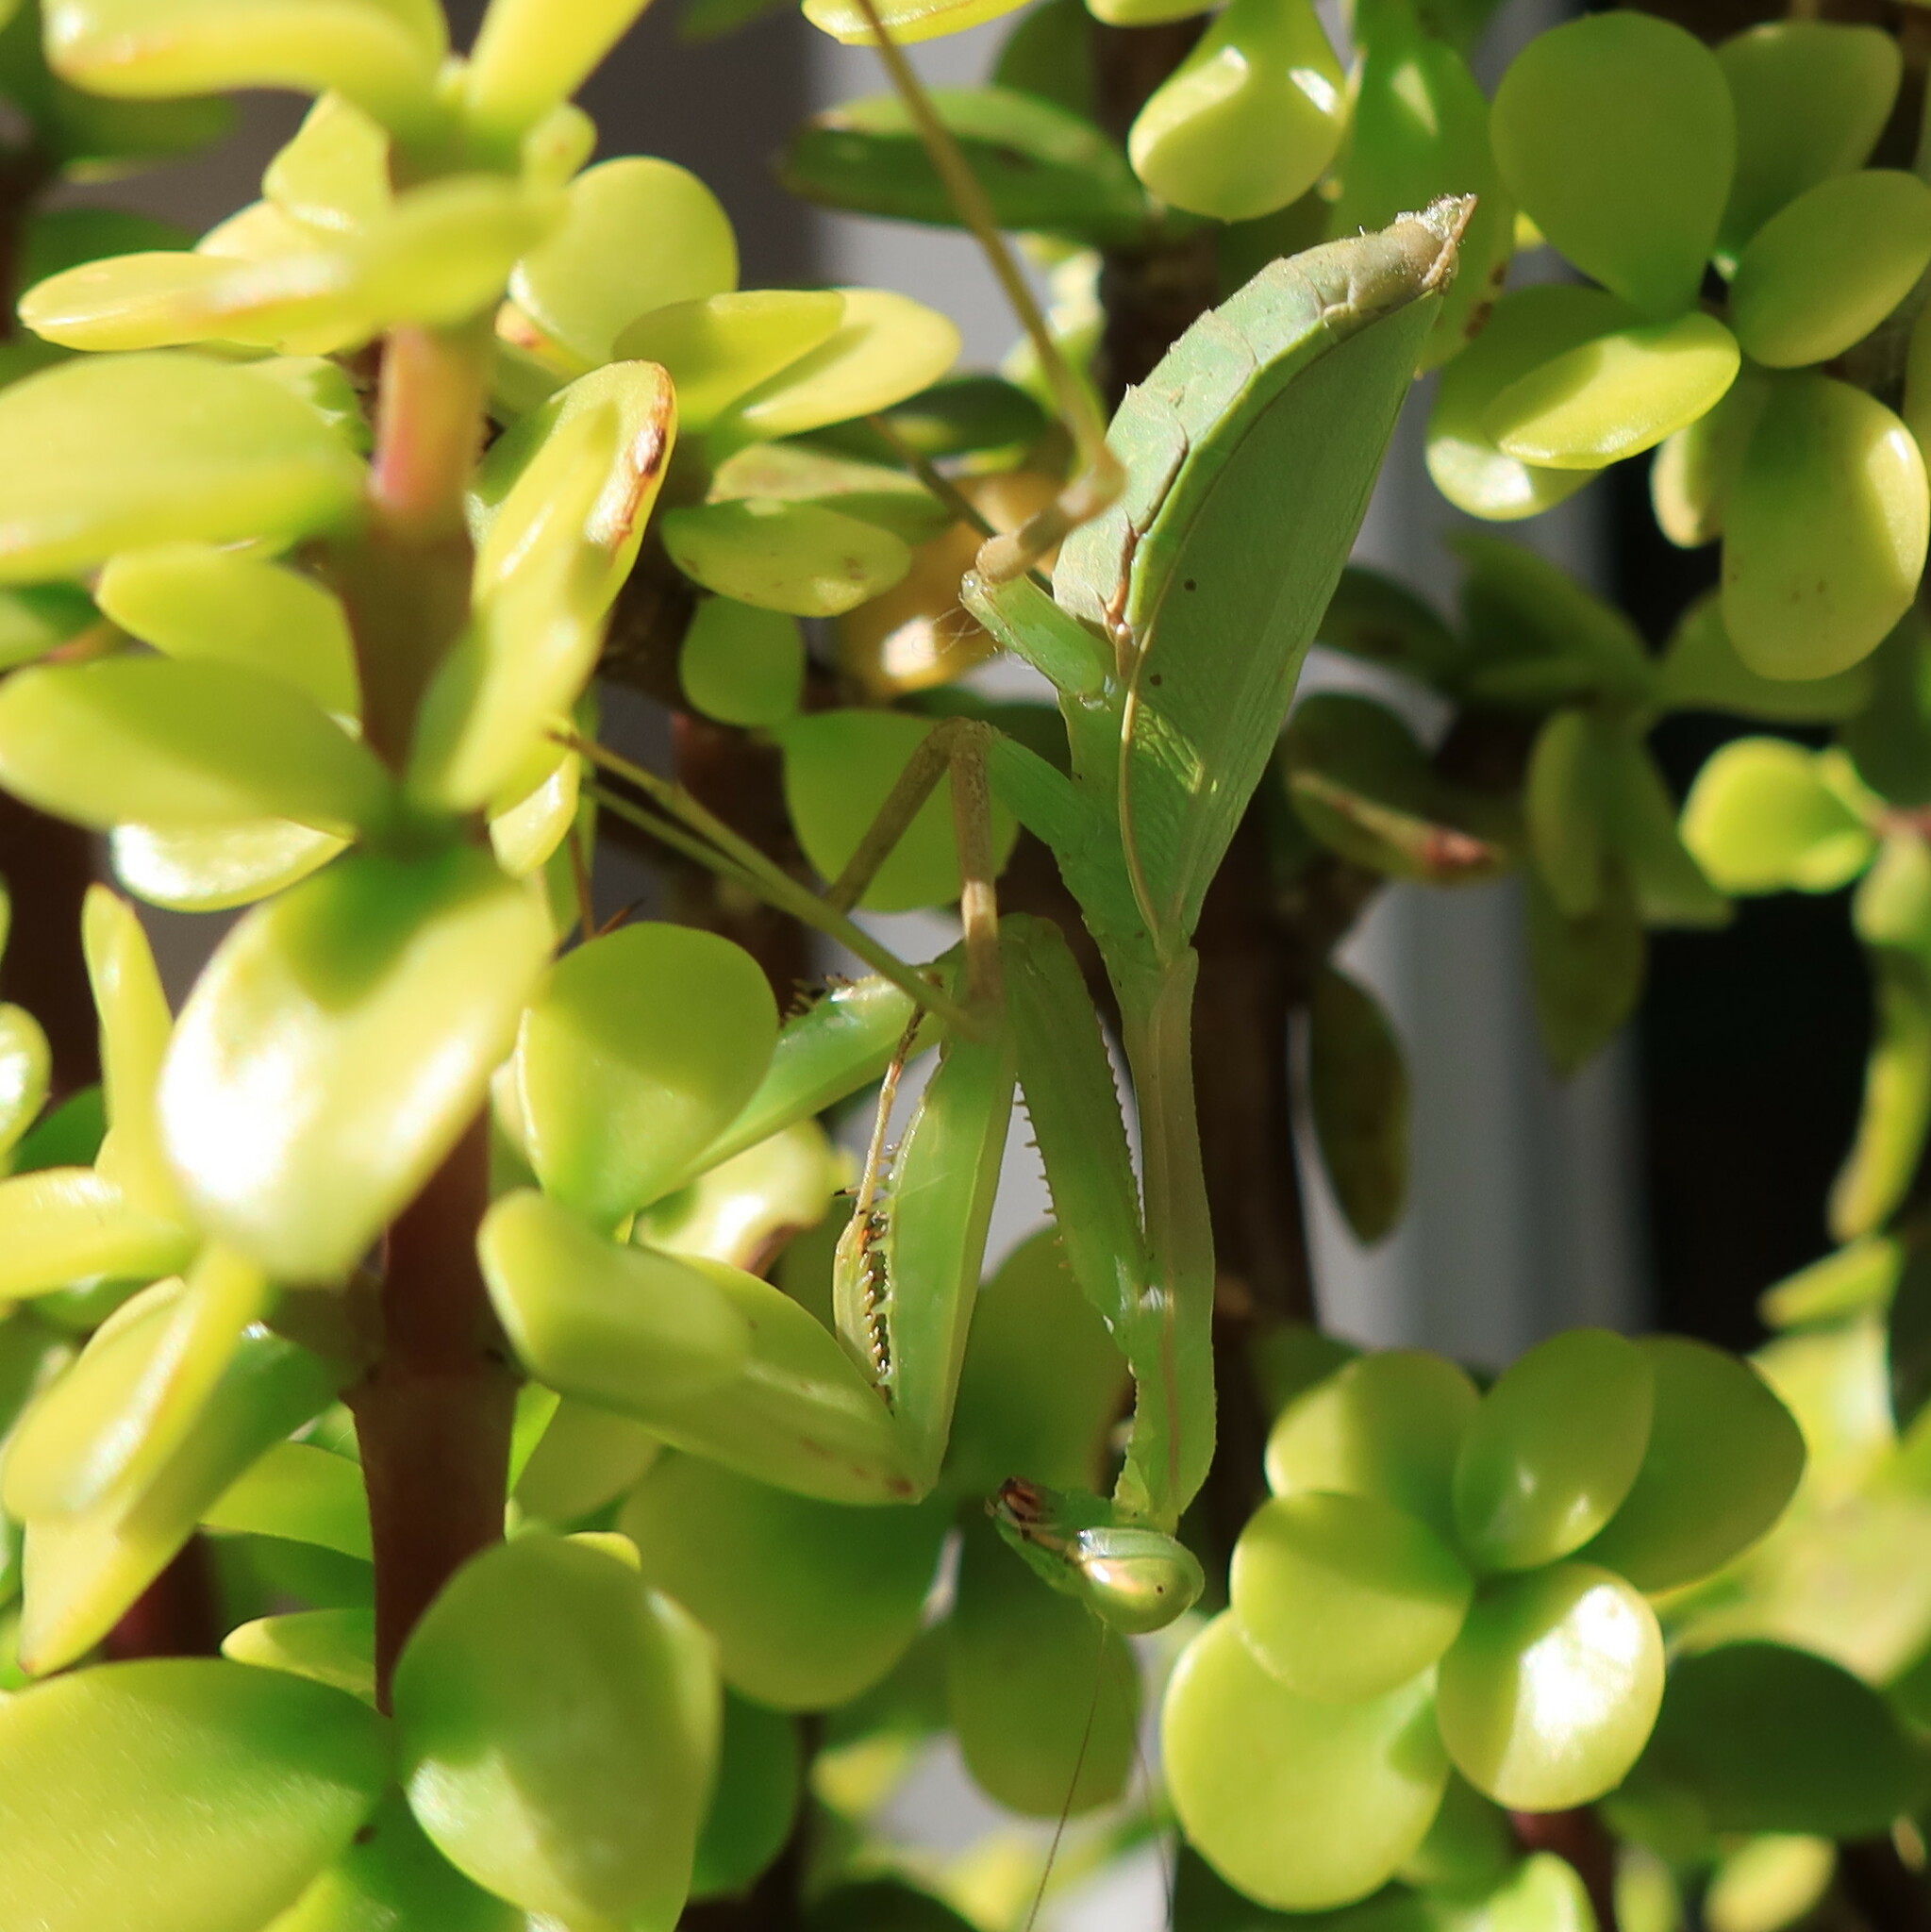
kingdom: Animalia
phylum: Arthropoda
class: Insecta
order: Mantodea
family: Miomantidae
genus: Miomantis
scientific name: Miomantis caffra
